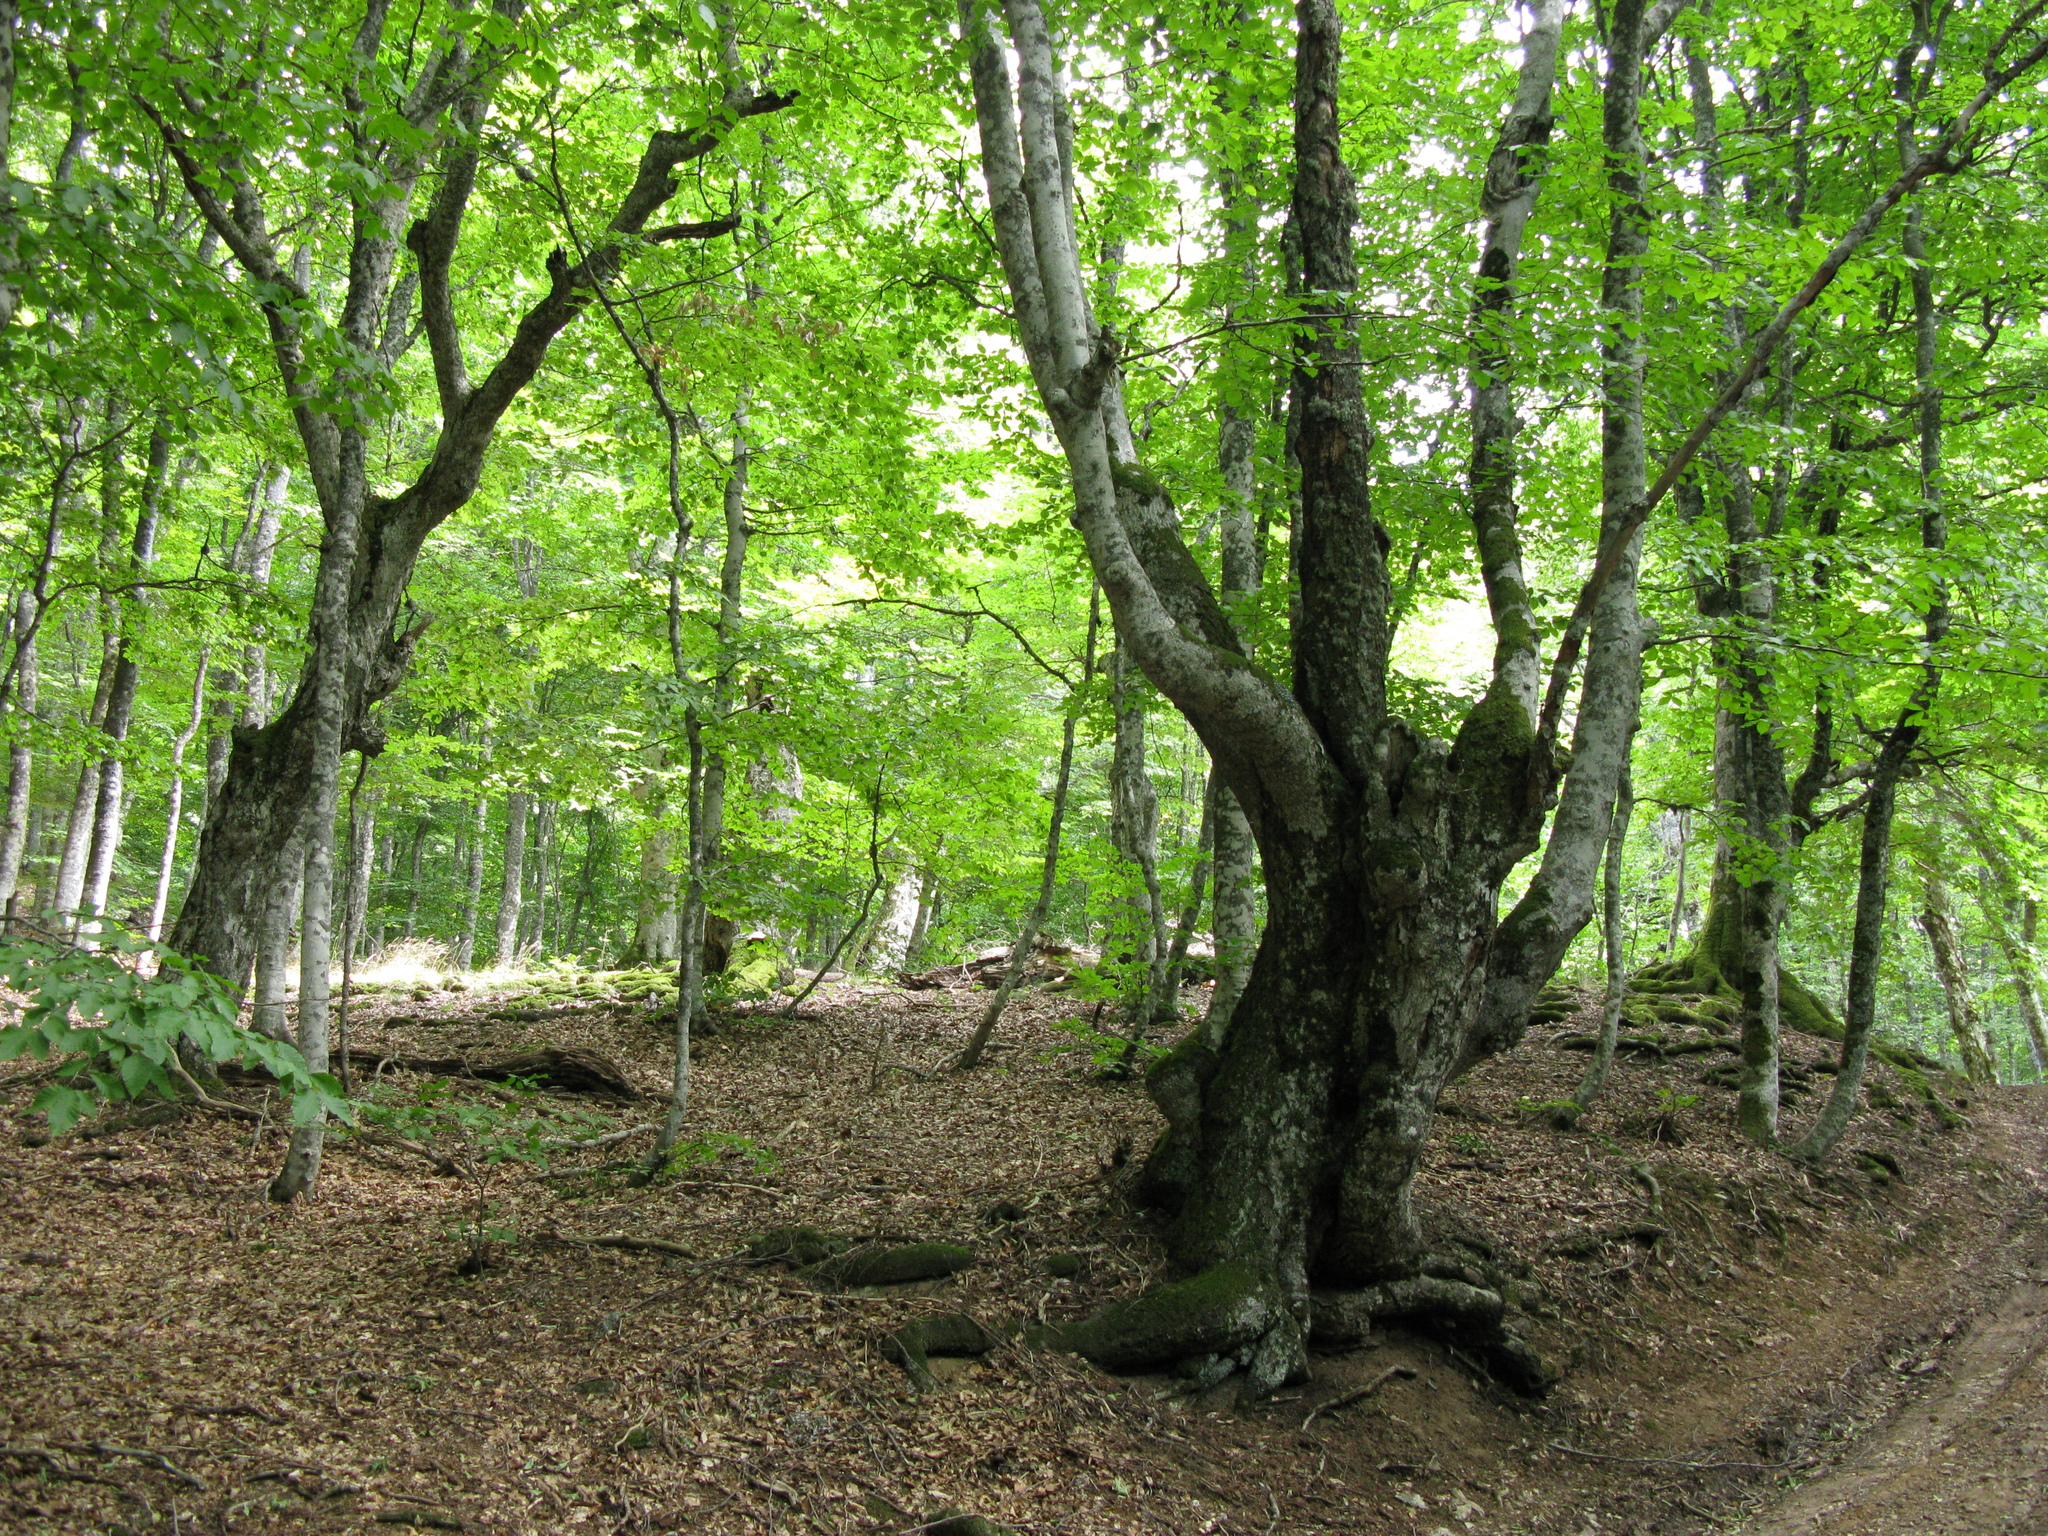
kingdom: Plantae
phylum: Tracheophyta
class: Magnoliopsida
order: Fagales
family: Fagaceae
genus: Fagus
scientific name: Fagus taurica
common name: Crimean beech
